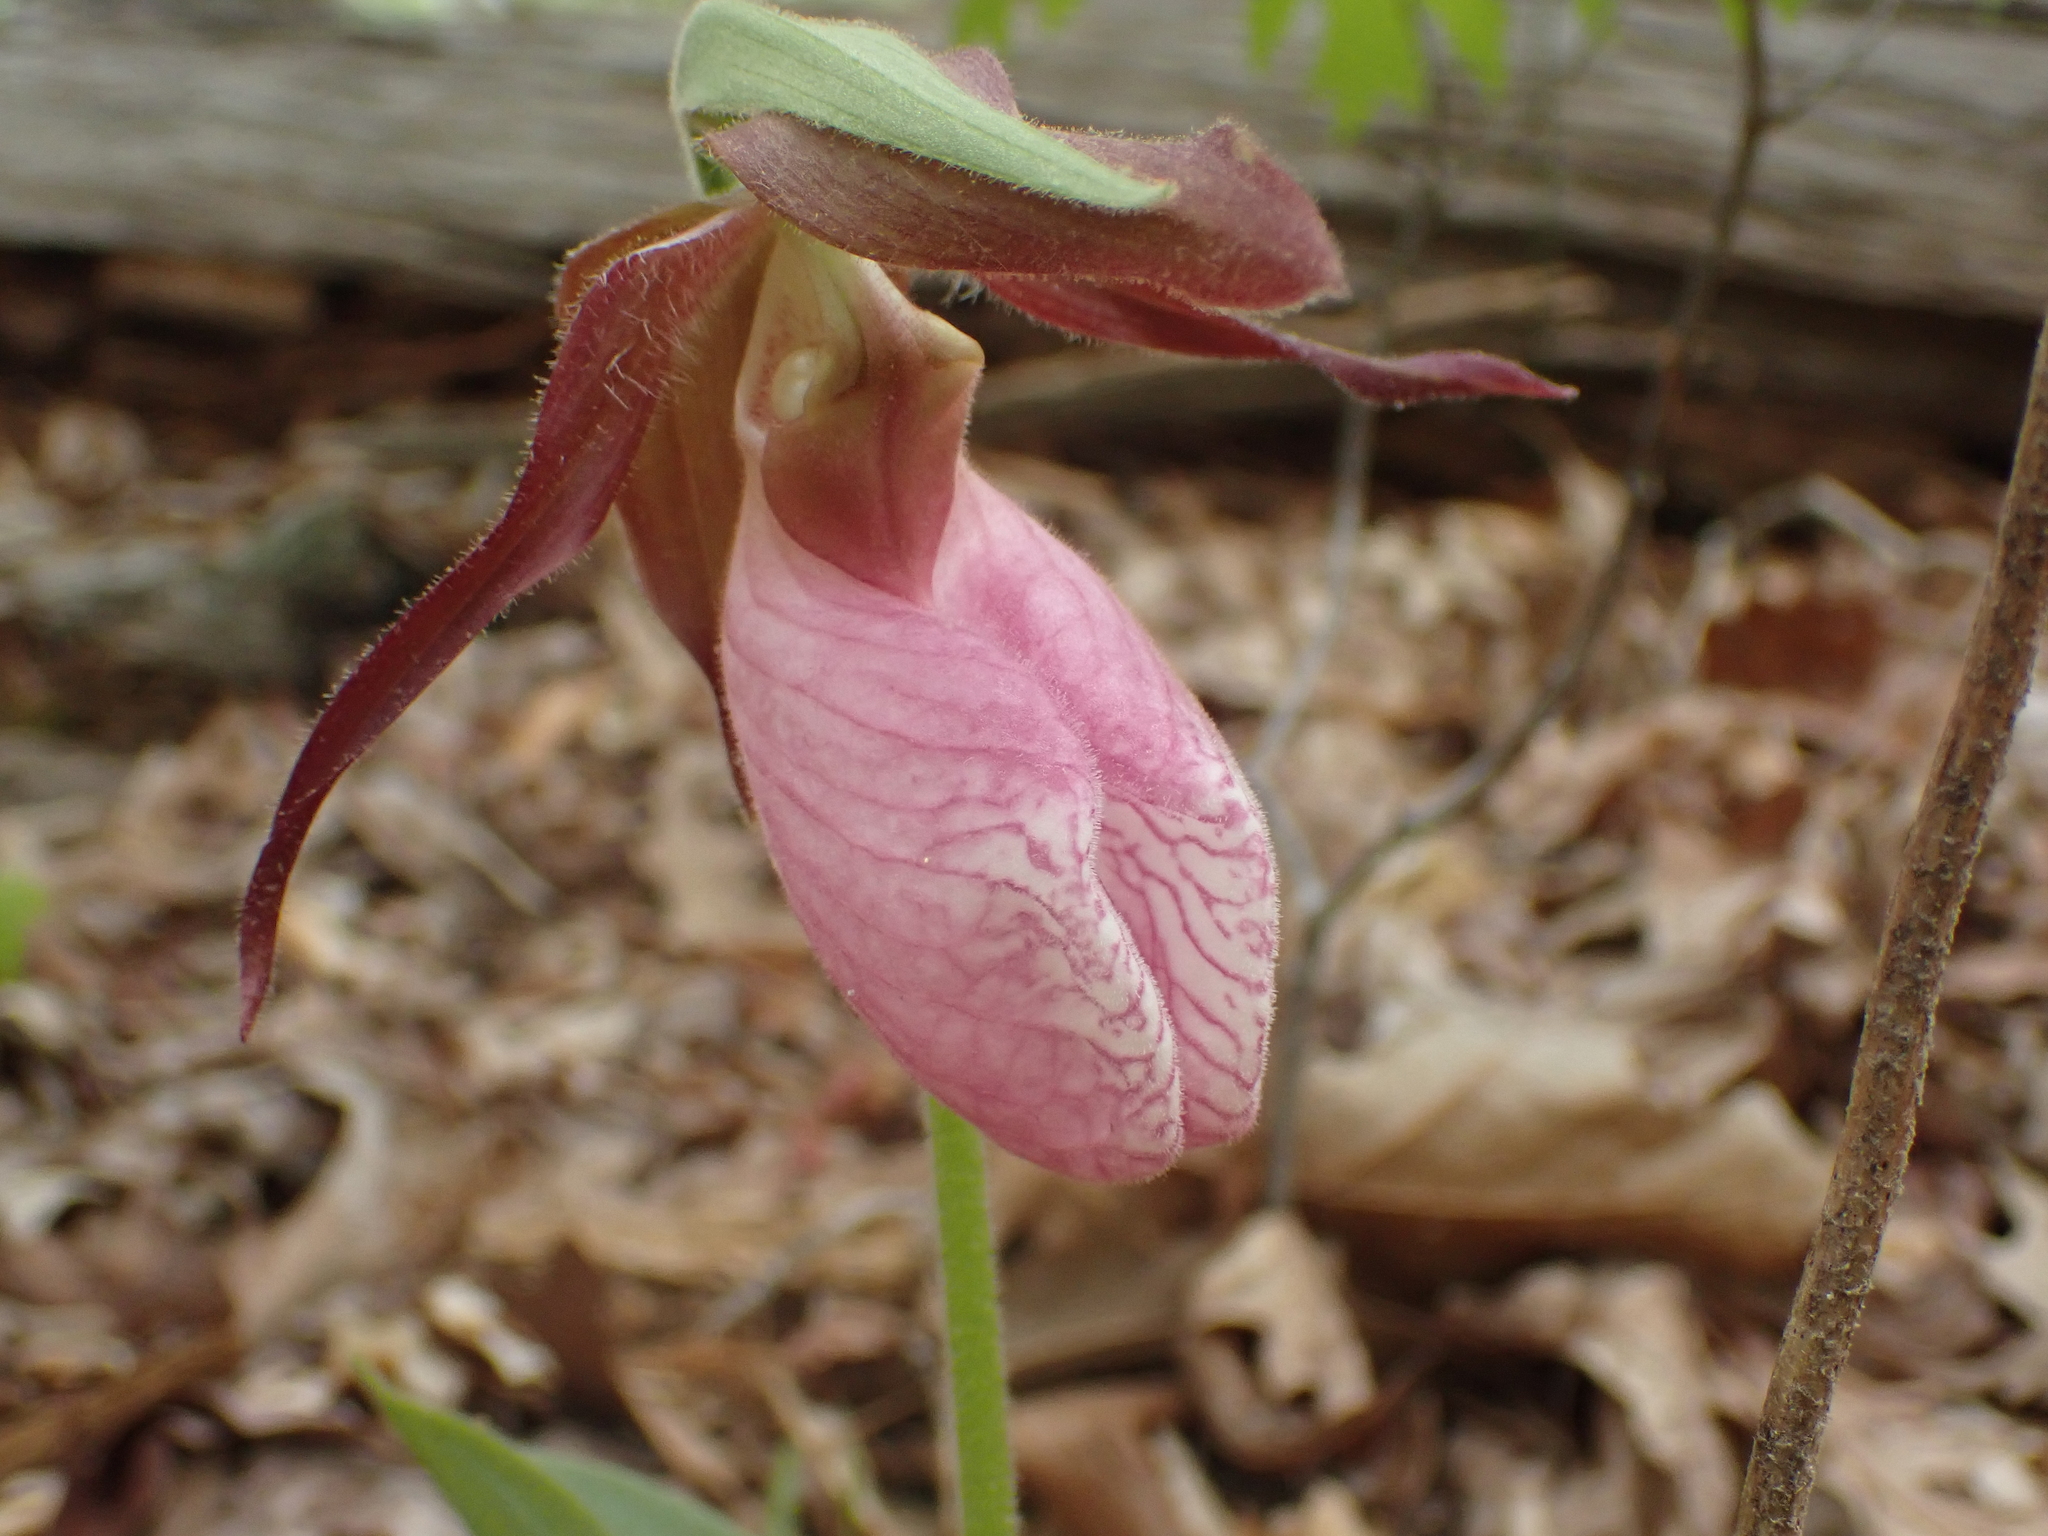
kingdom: Plantae
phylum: Tracheophyta
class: Liliopsida
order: Asparagales
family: Orchidaceae
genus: Cypripedium
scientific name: Cypripedium acaule
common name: Pink lady's-slipper
